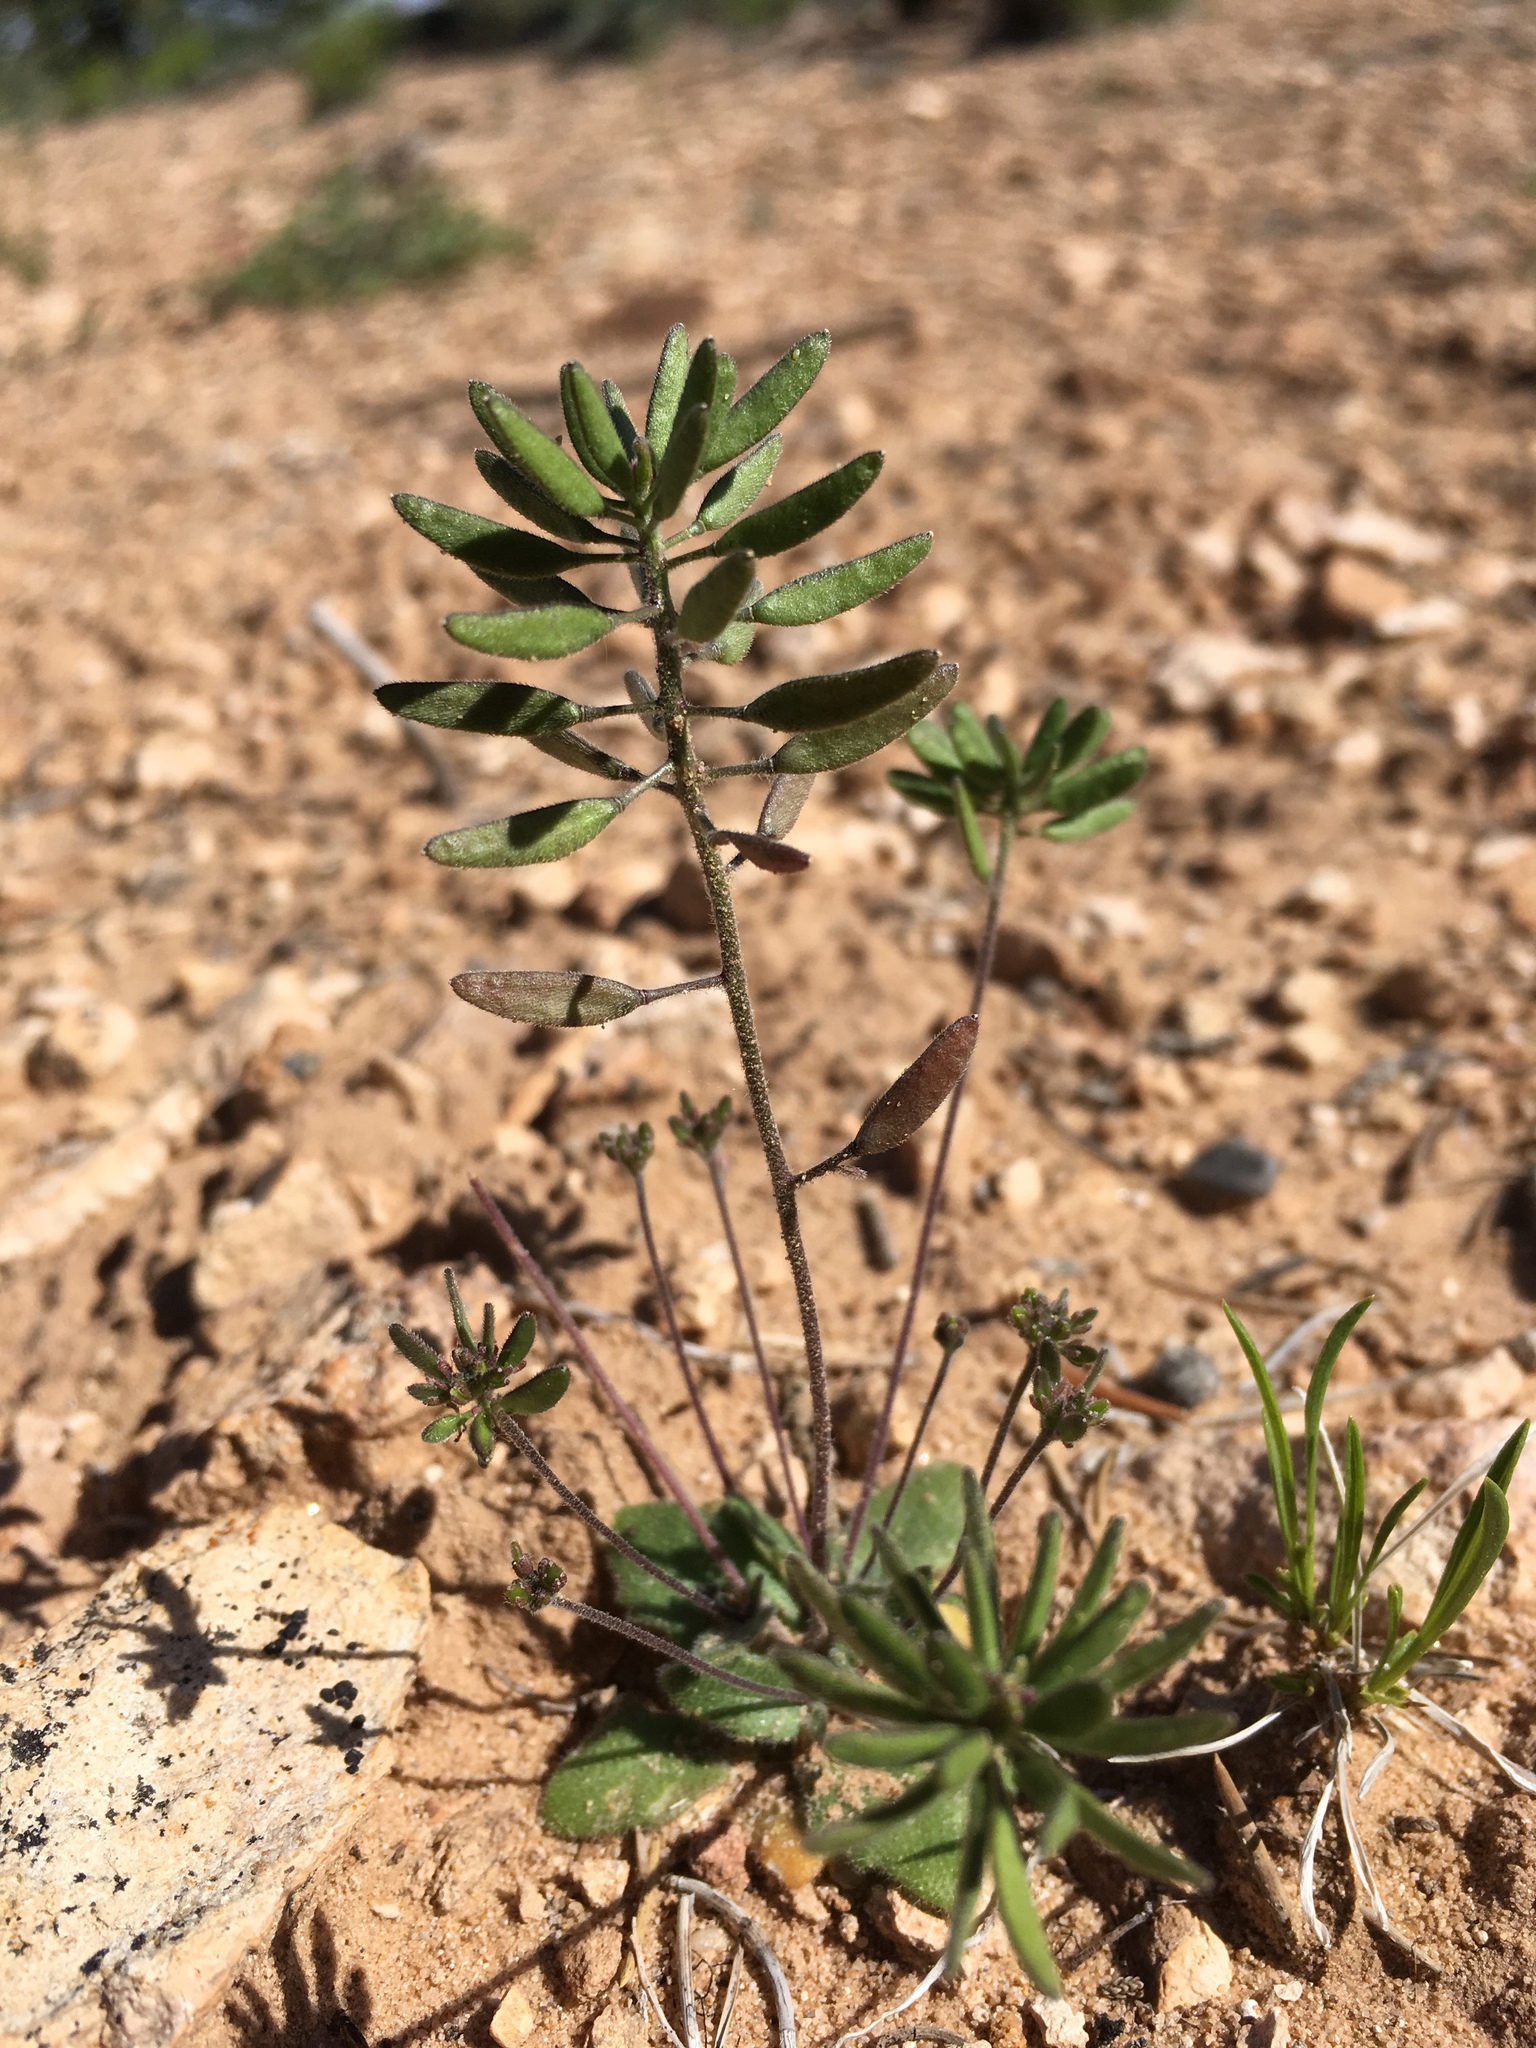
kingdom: Plantae
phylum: Tracheophyta
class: Magnoliopsida
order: Brassicales
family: Brassicaceae
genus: Tomostima
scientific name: Tomostima cuneifolia
